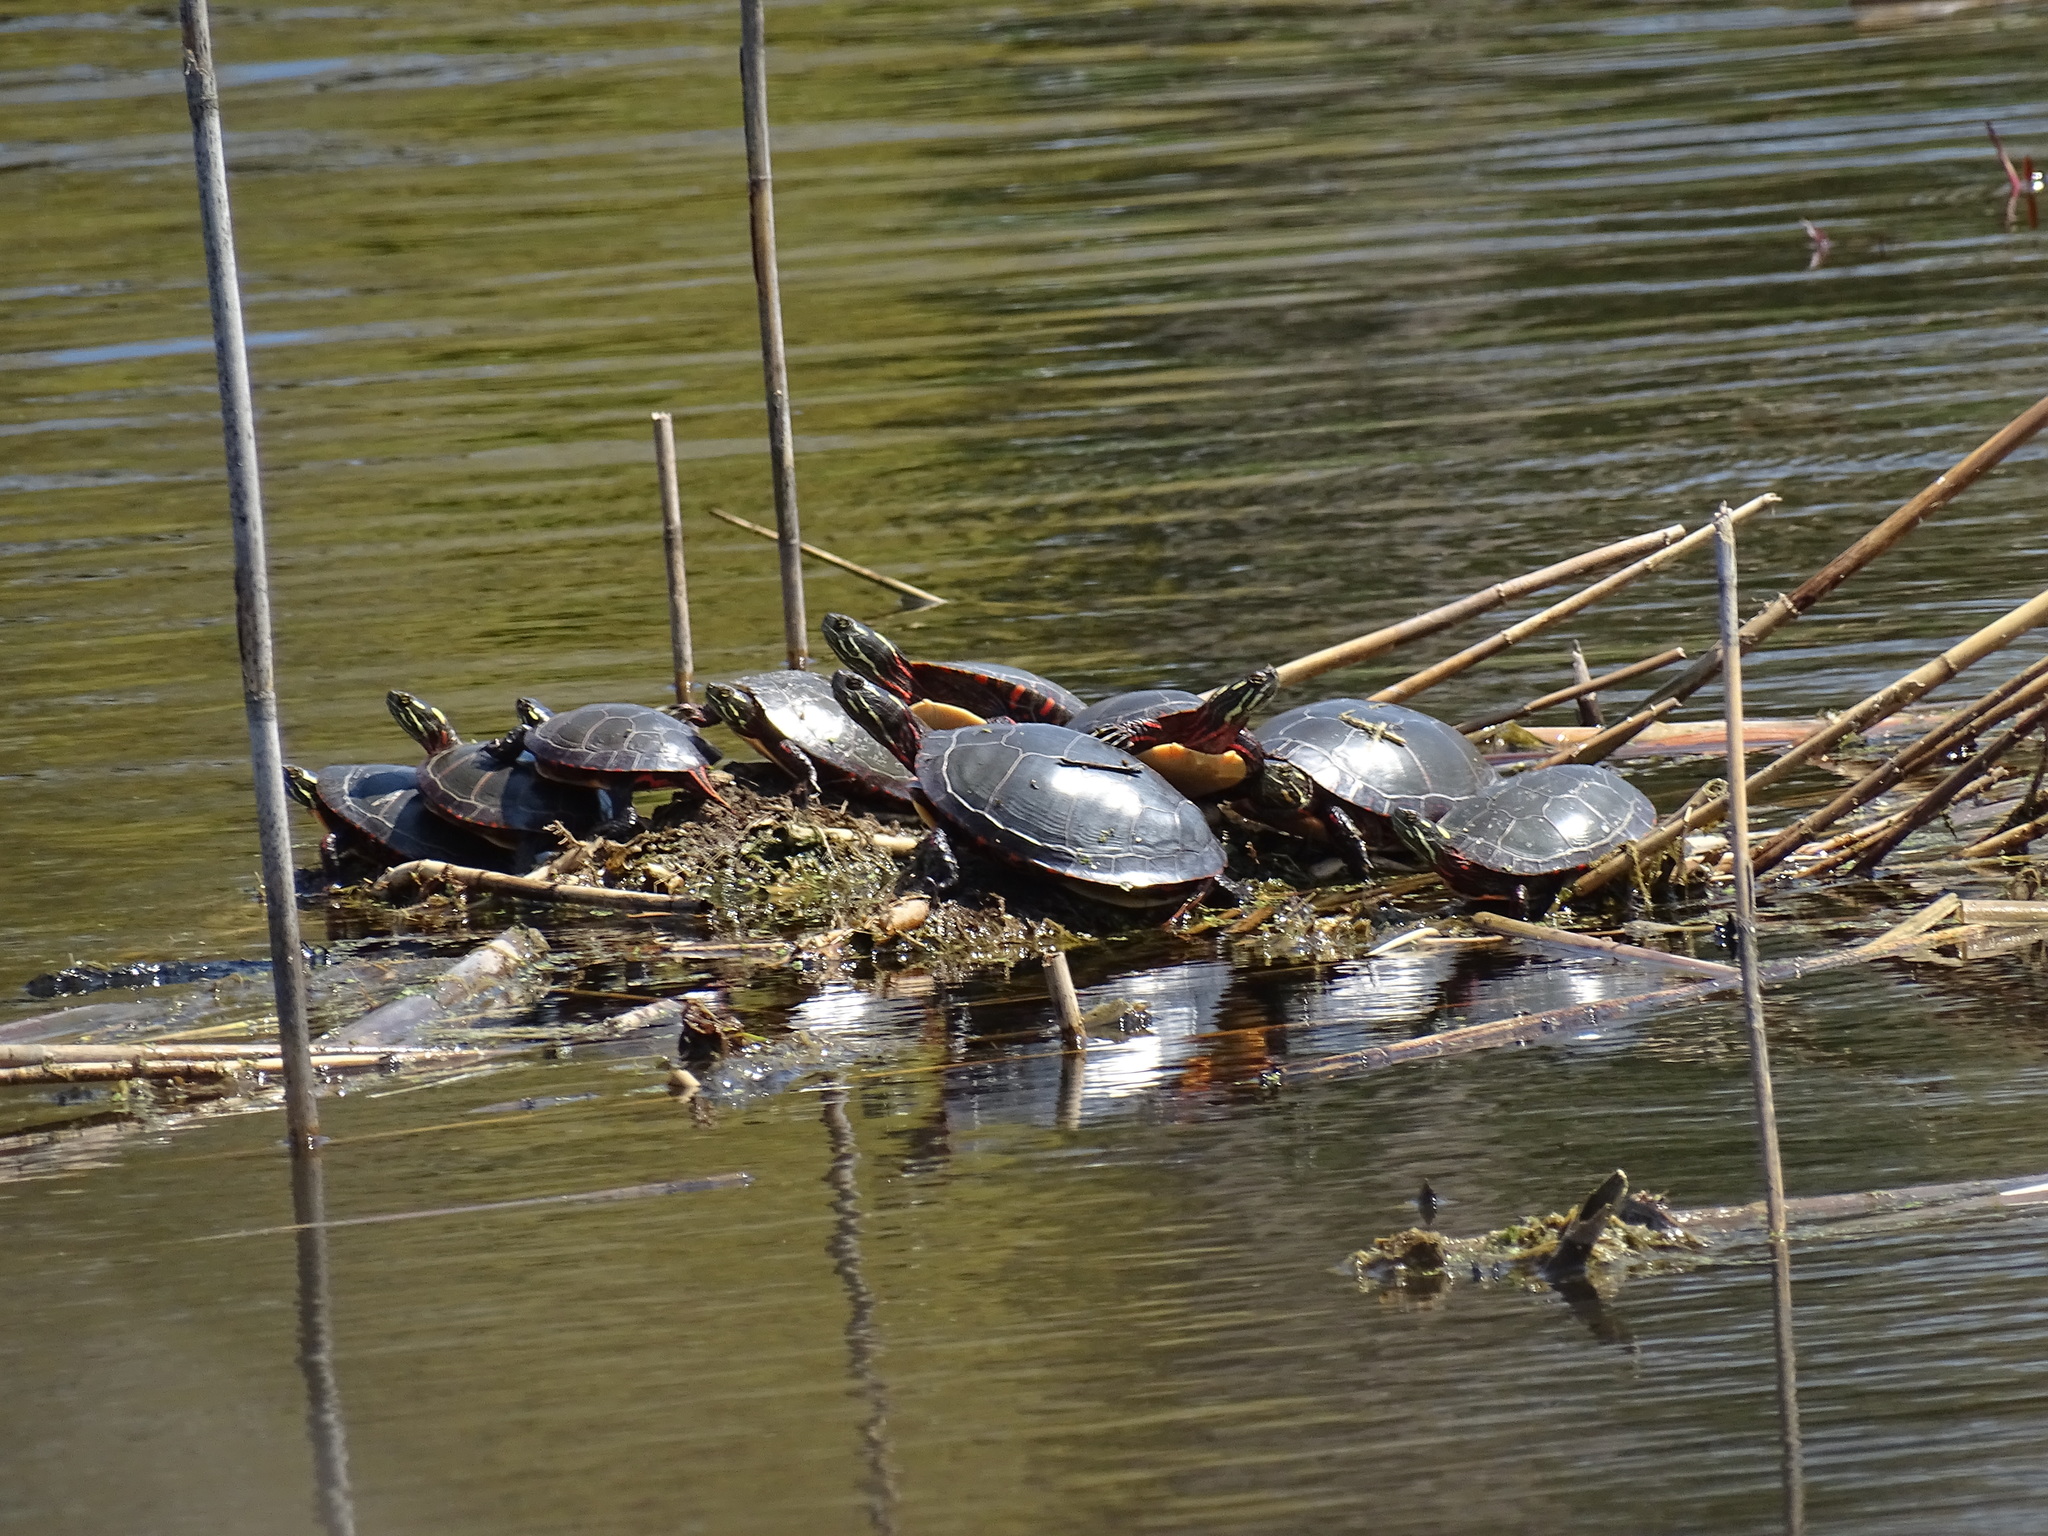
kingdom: Animalia
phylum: Chordata
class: Testudines
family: Emydidae
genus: Chrysemys
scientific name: Chrysemys picta
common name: Painted turtle
